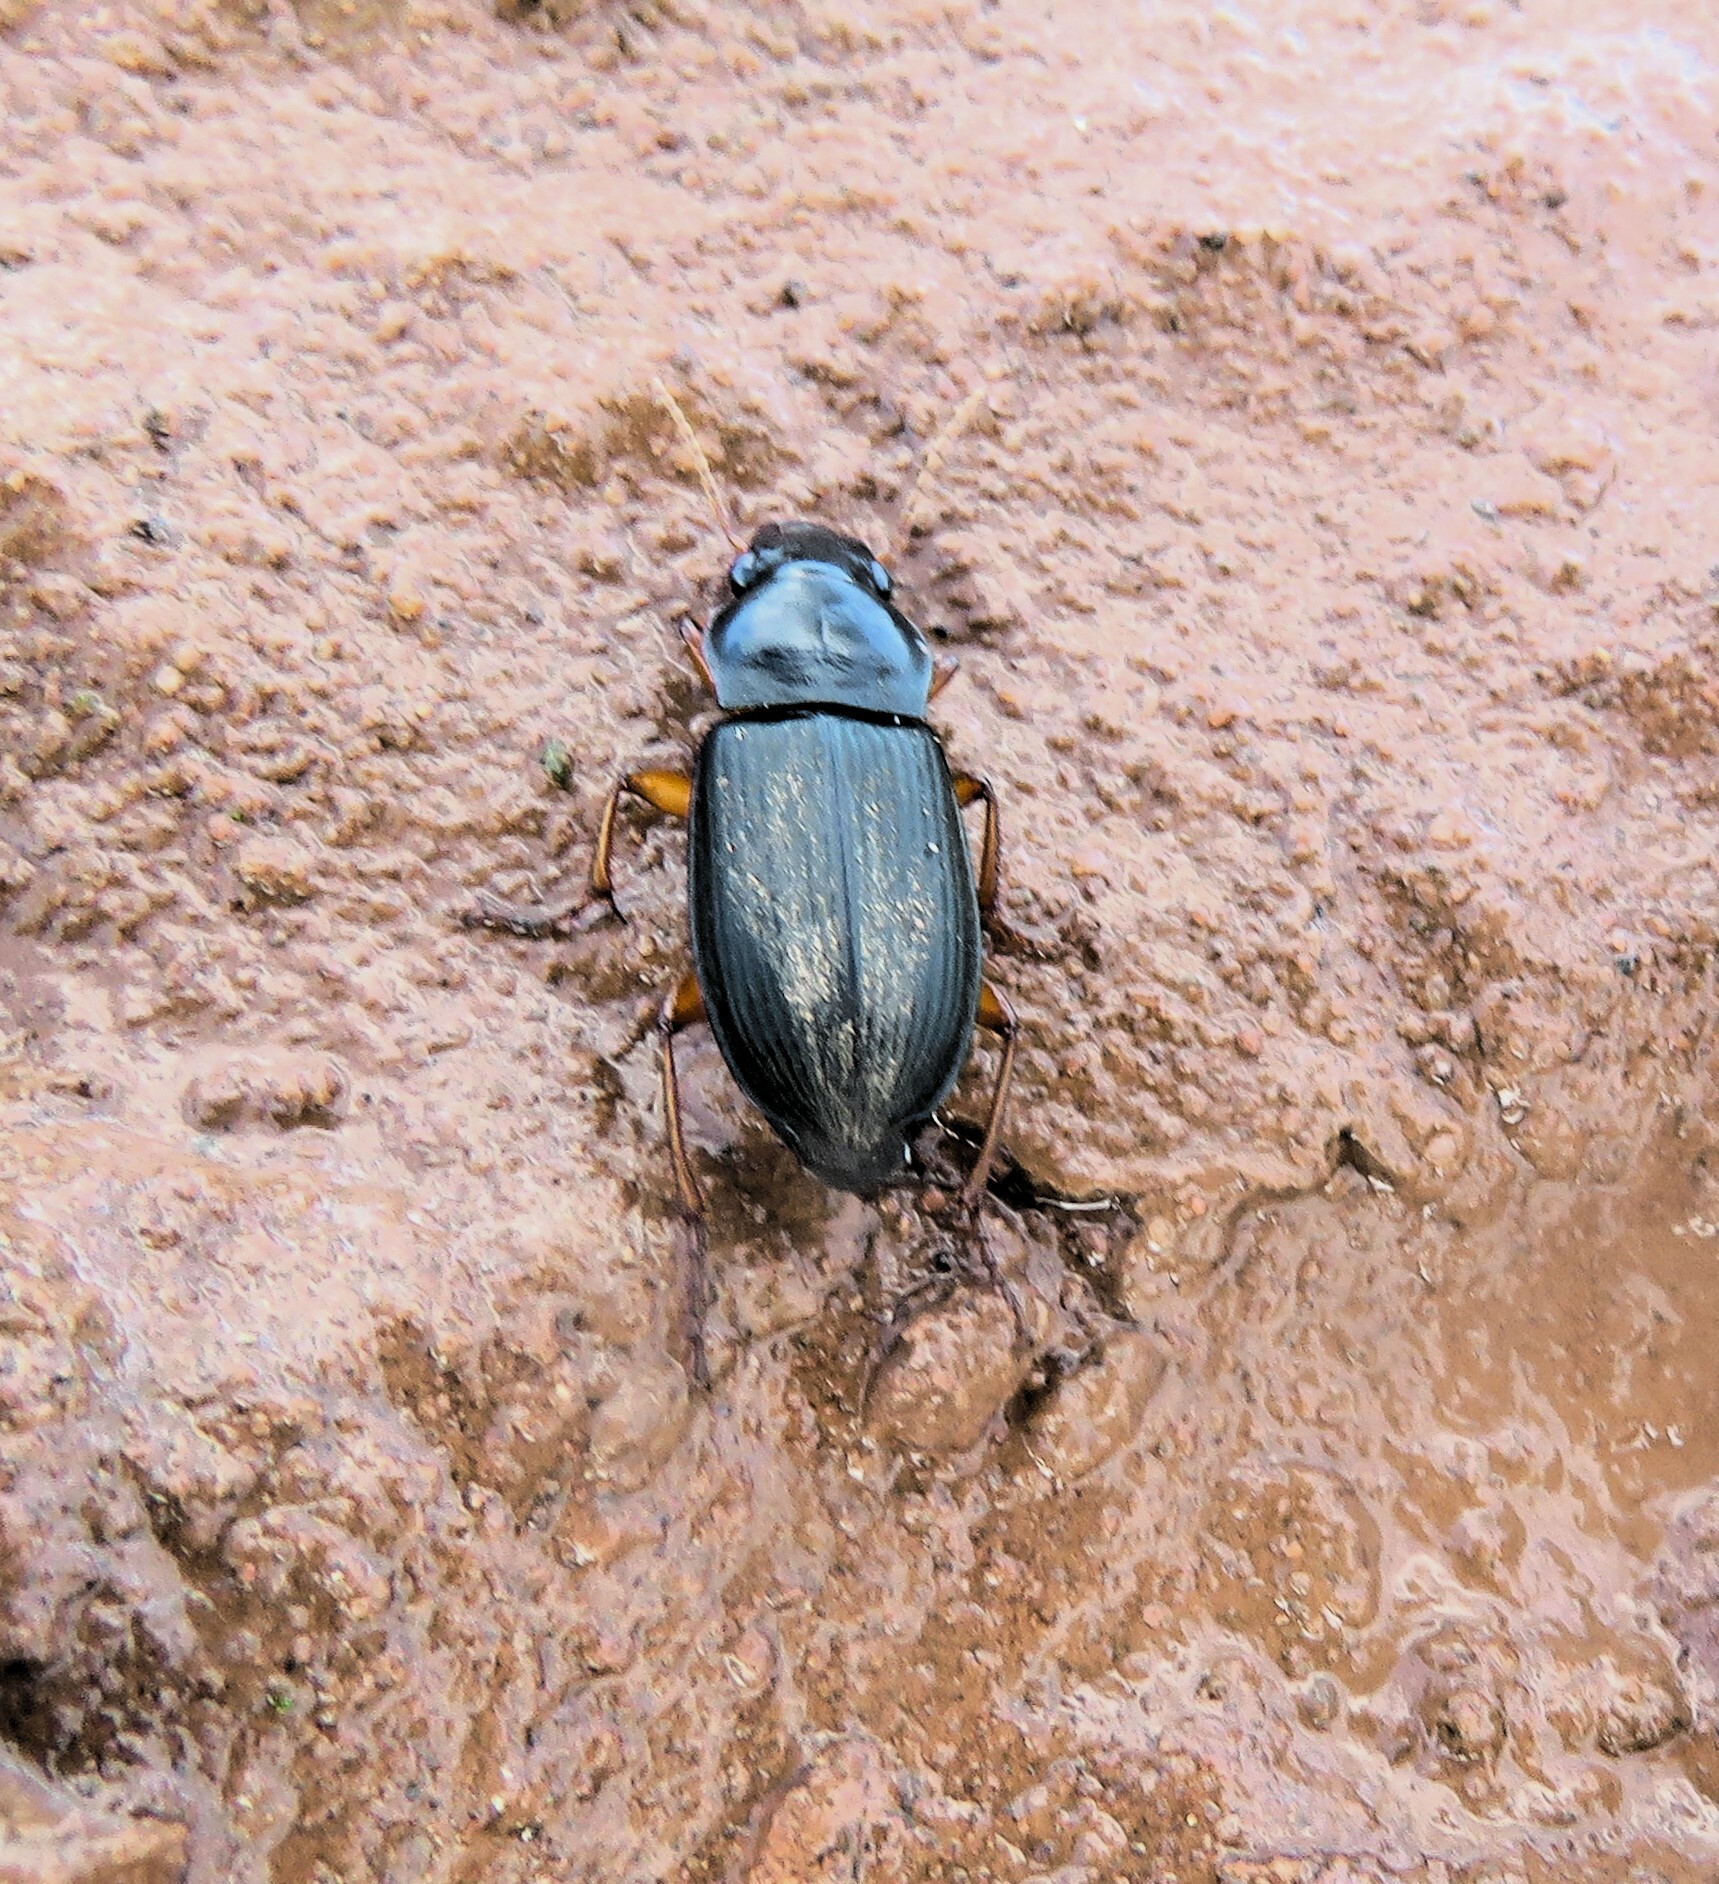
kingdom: Animalia
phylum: Arthropoda
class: Insecta
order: Coleoptera
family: Carabidae
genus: Harpalus
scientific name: Harpalus rufipes
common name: Strawberry harp ground beetle
